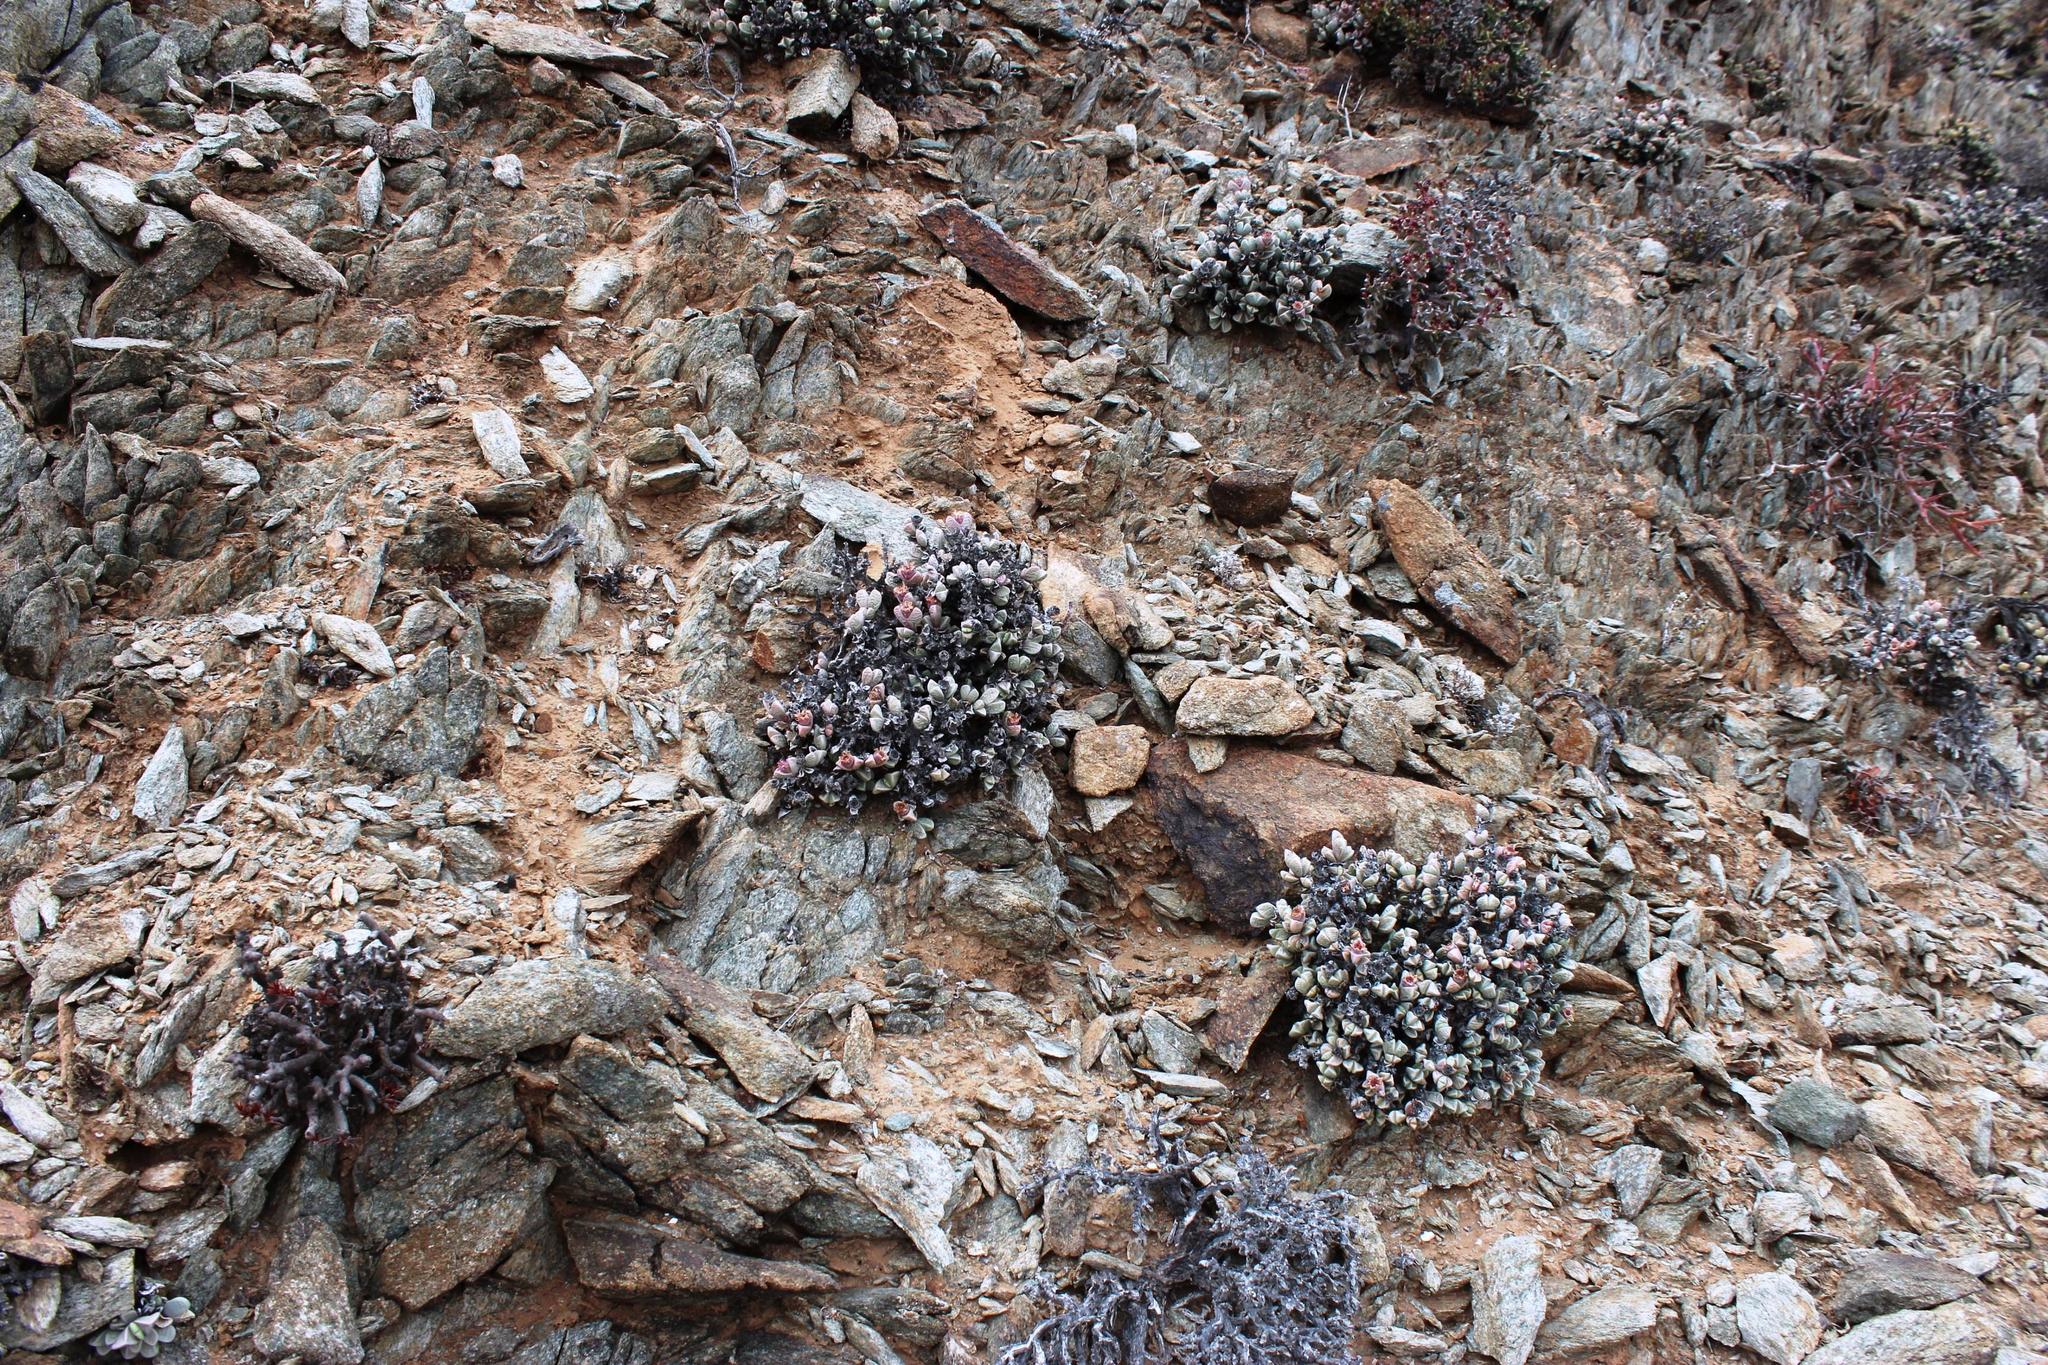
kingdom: Plantae
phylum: Tracheophyta
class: Magnoliopsida
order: Caryophyllales
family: Aizoaceae
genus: Schlechteranthus
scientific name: Schlechteranthus hallii
